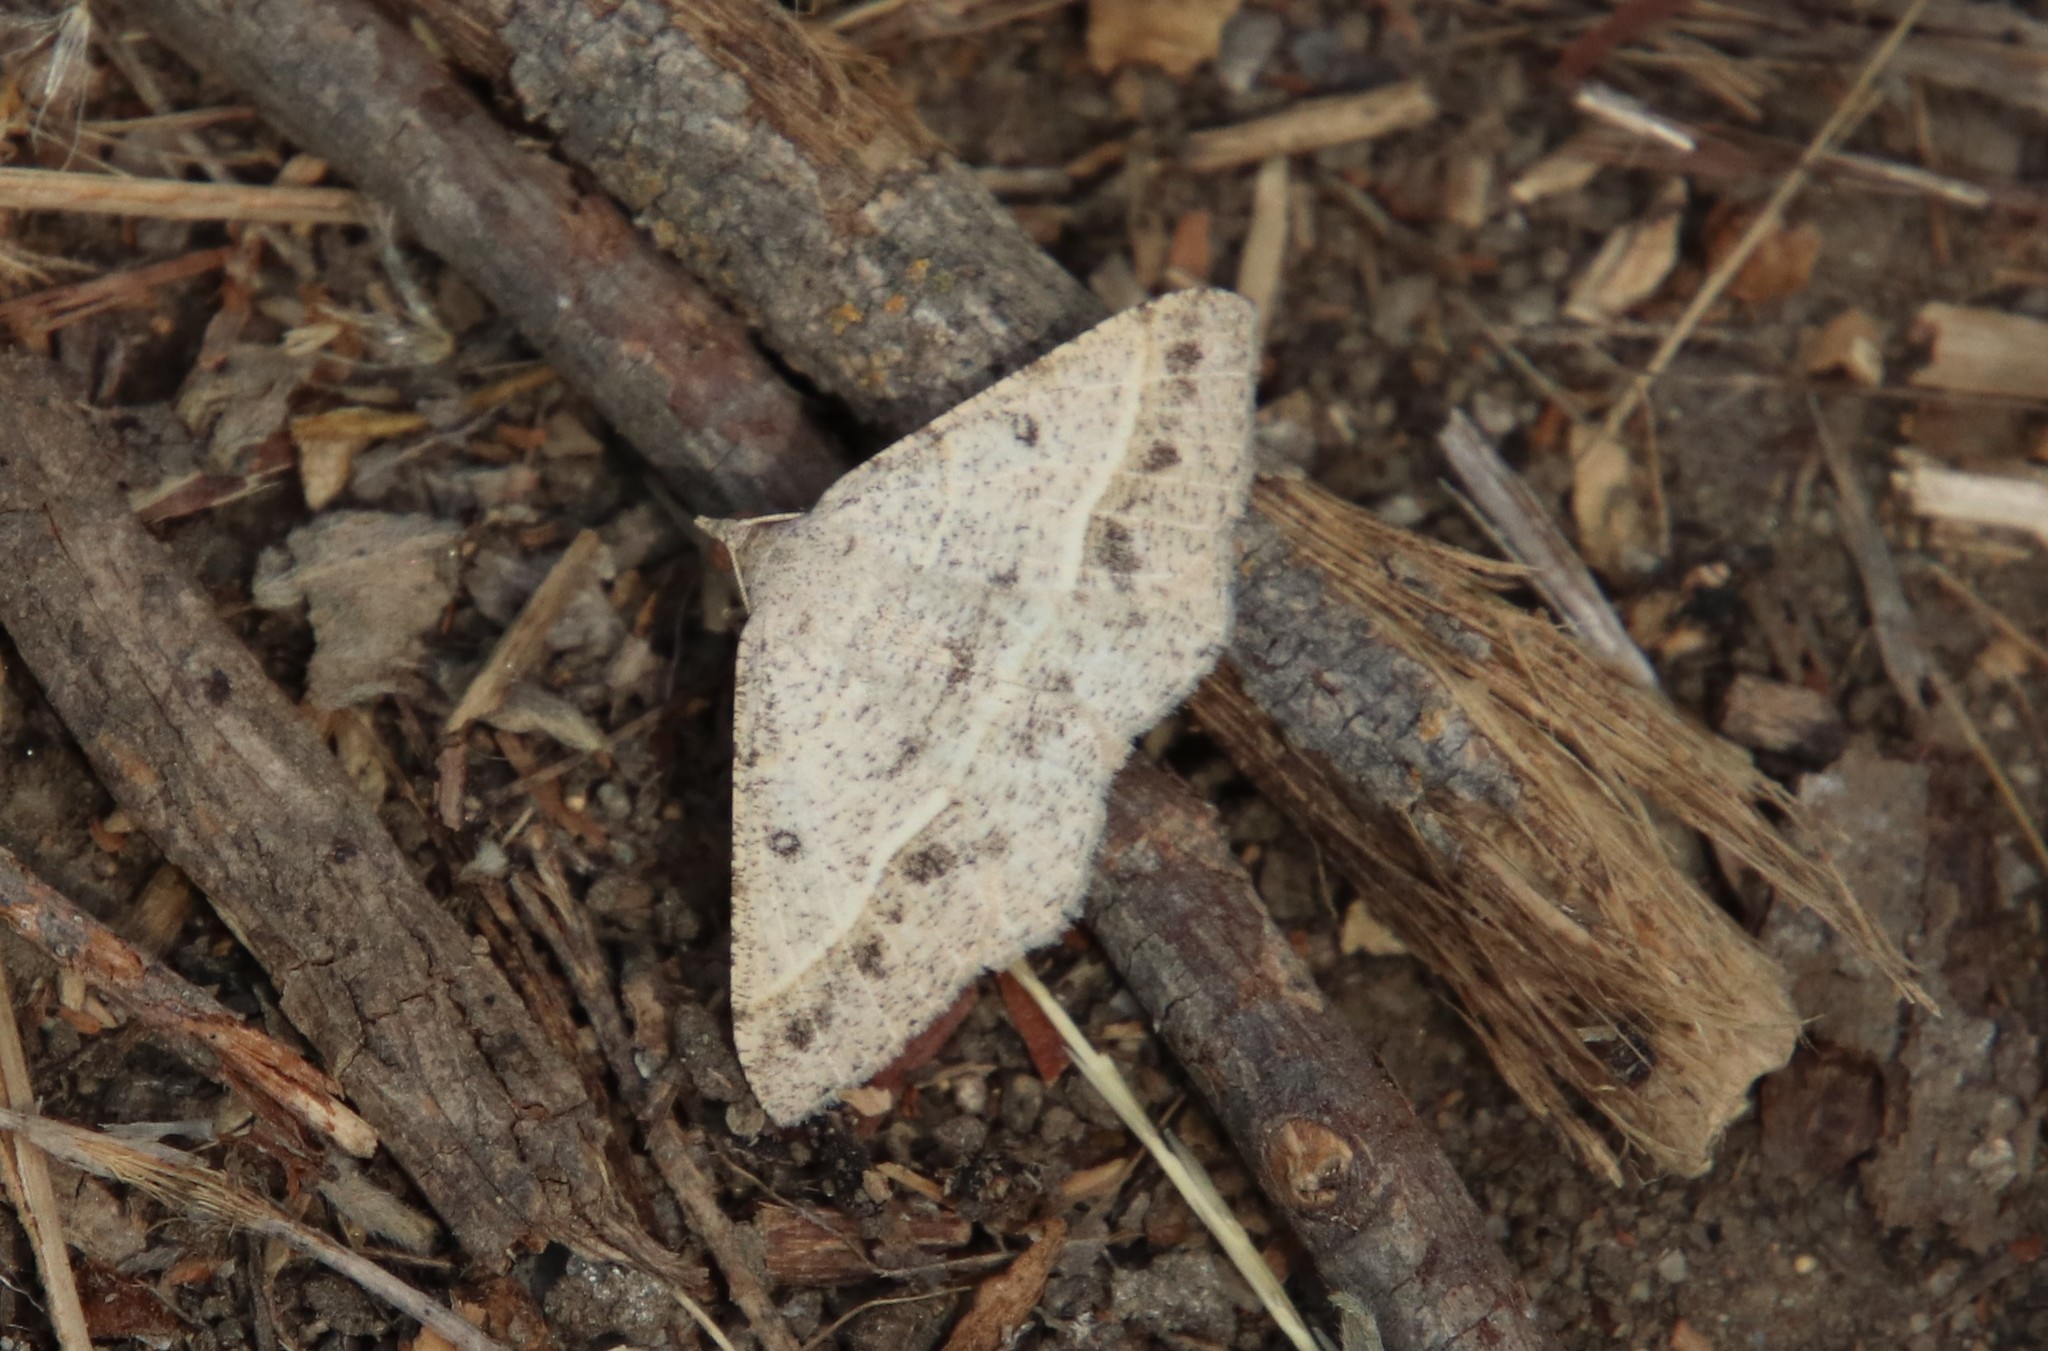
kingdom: Animalia
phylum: Arthropoda
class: Insecta
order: Lepidoptera
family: Geometridae
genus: Digrammia
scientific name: Digrammia irrorata
